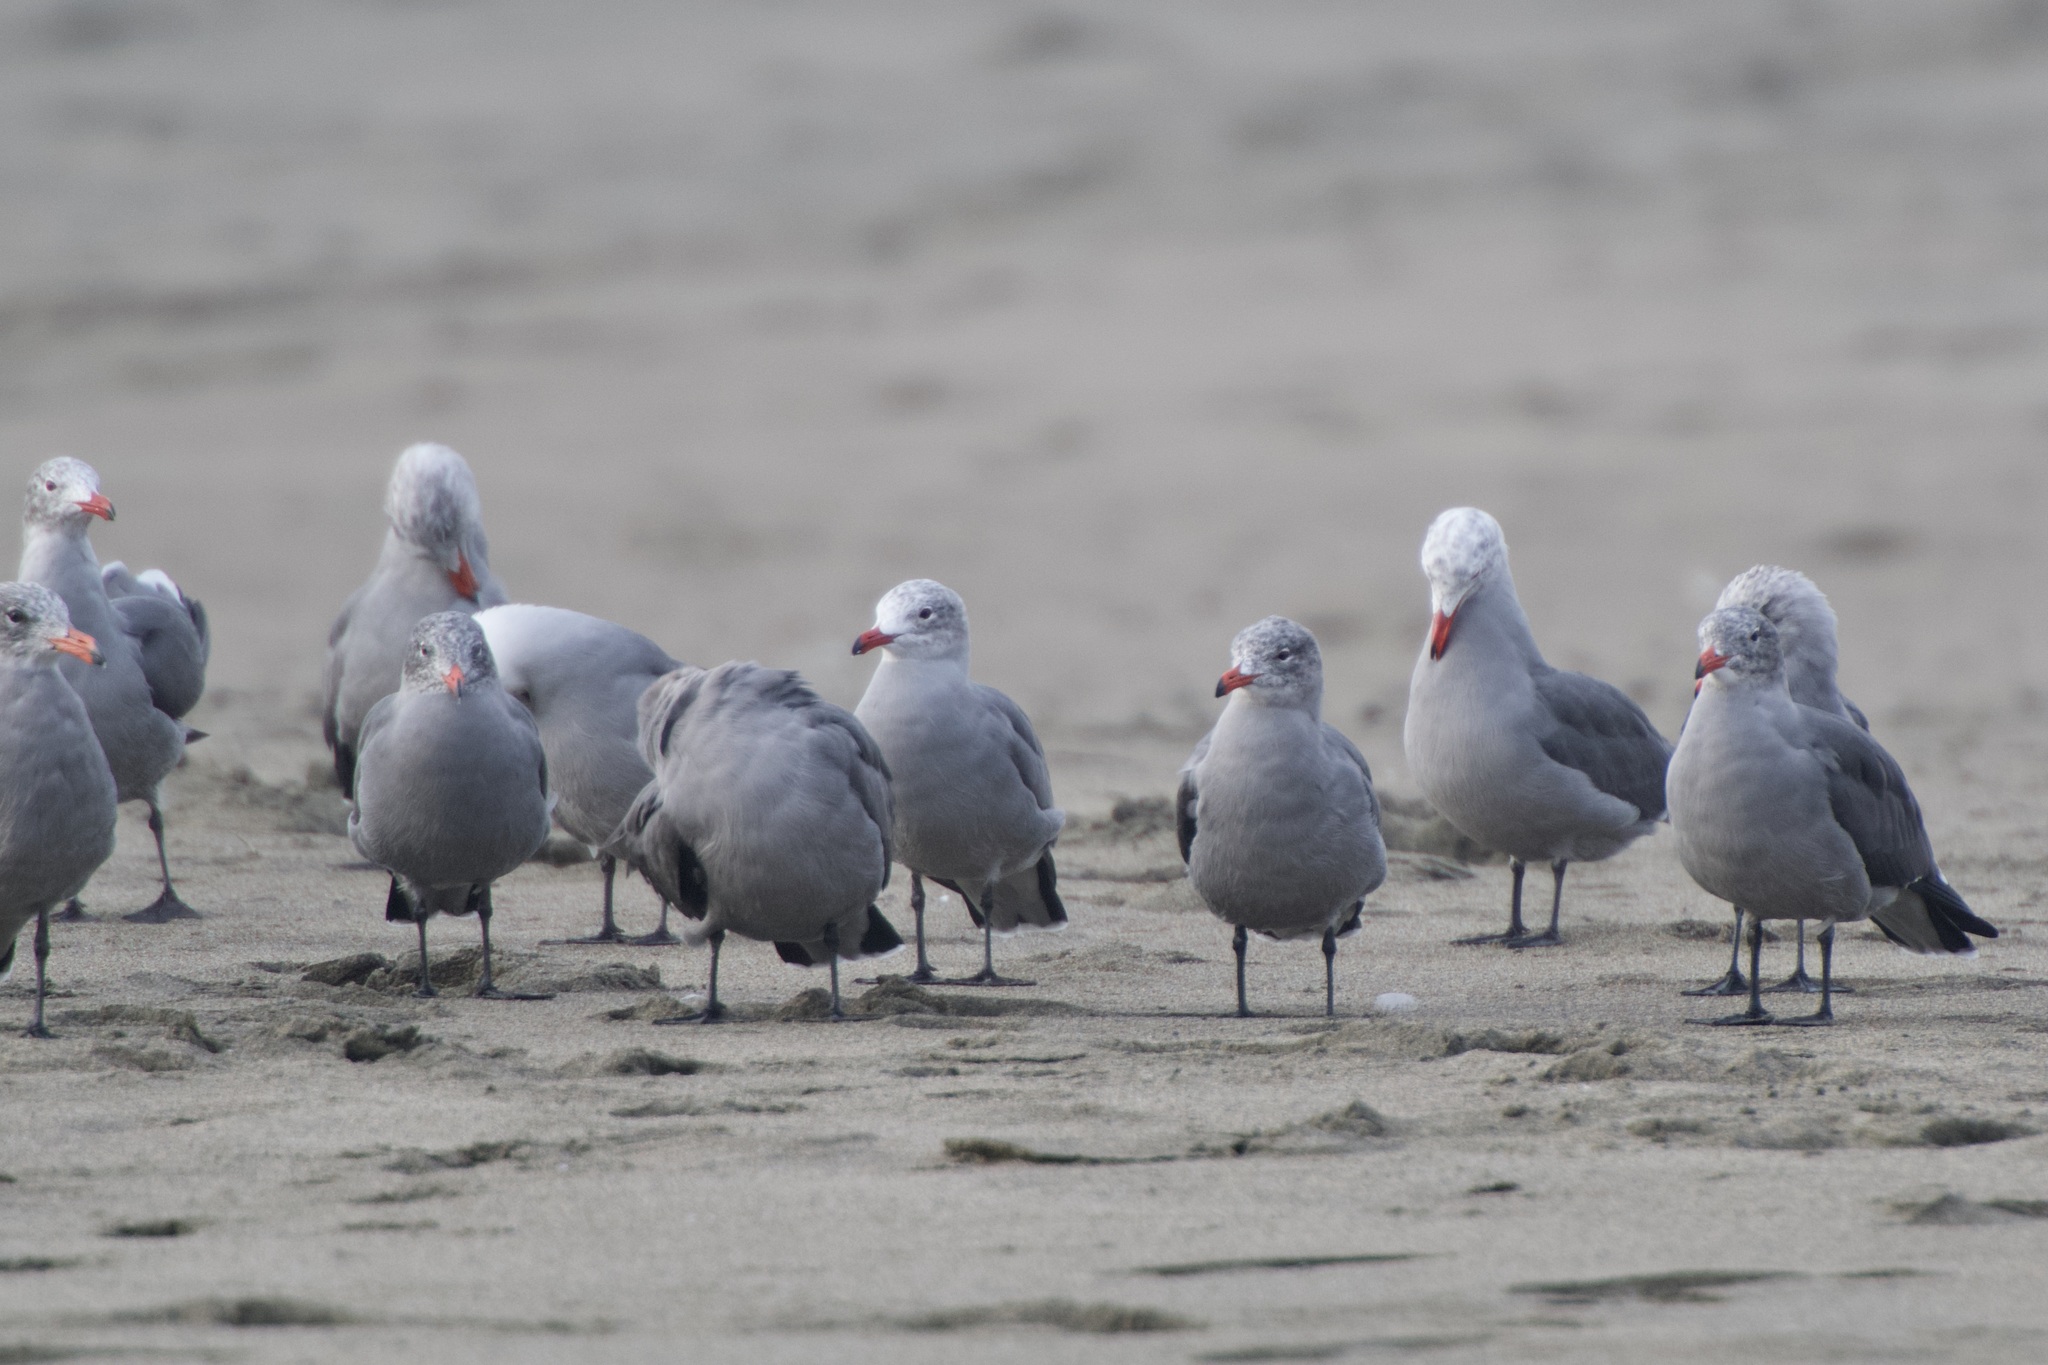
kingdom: Animalia
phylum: Chordata
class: Aves
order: Charadriiformes
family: Laridae
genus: Larus
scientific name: Larus heermanni
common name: Heermann's gull
